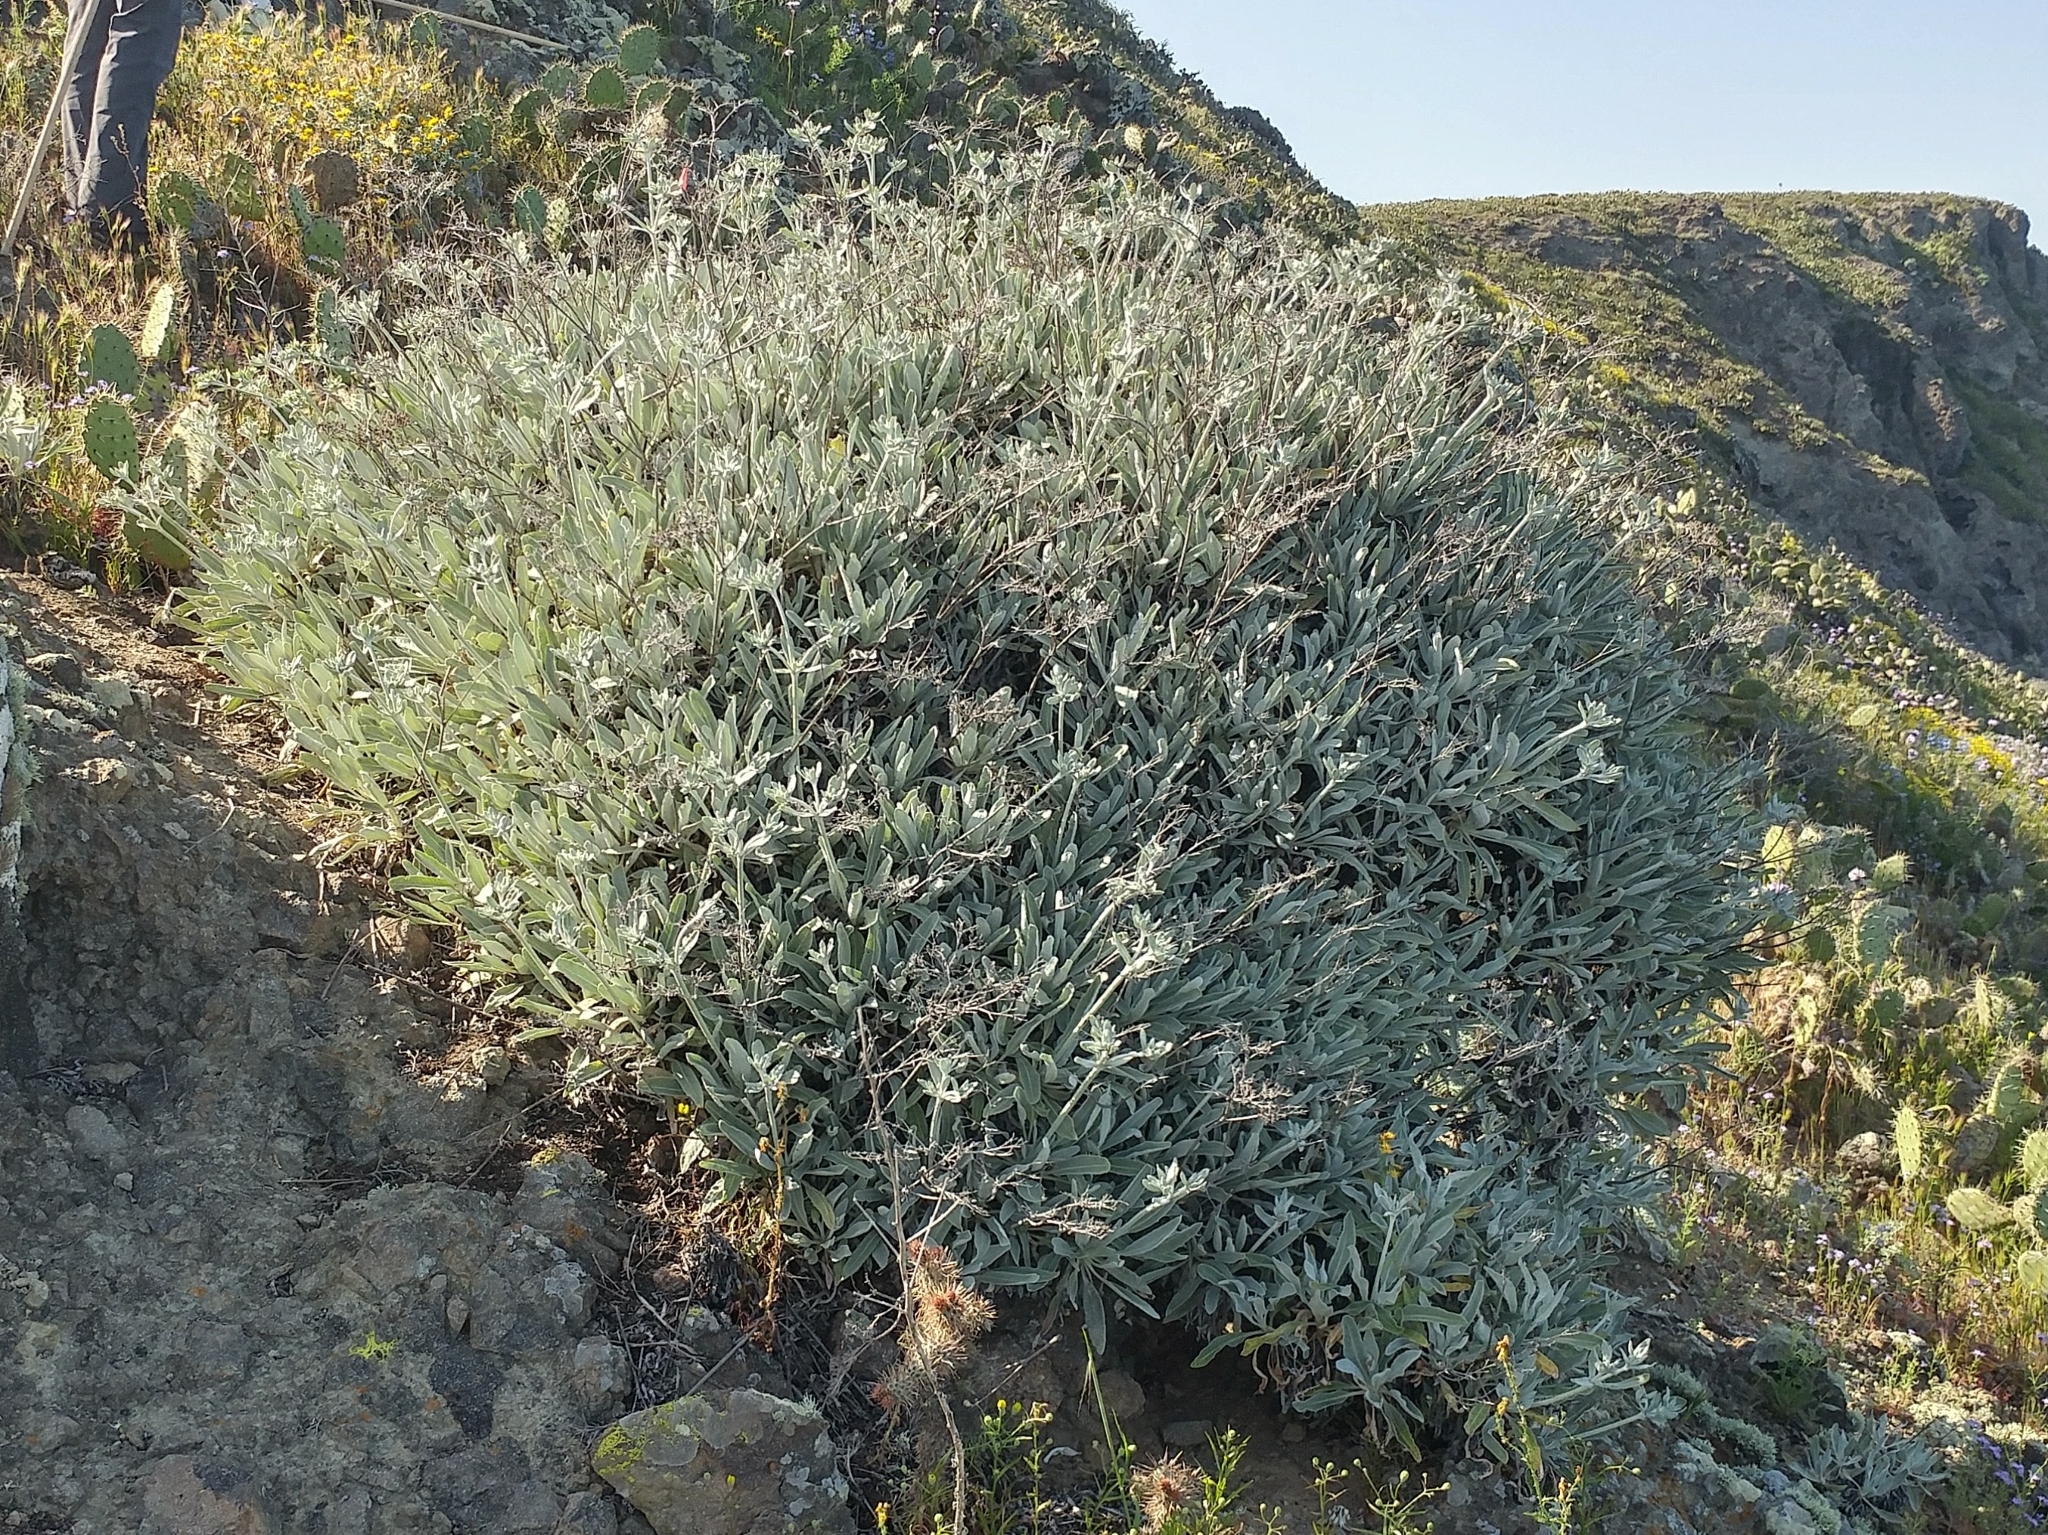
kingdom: Plantae
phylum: Tracheophyta
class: Magnoliopsida
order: Caryophyllales
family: Polygonaceae
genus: Eriogonum
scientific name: Eriogonum giganteum
